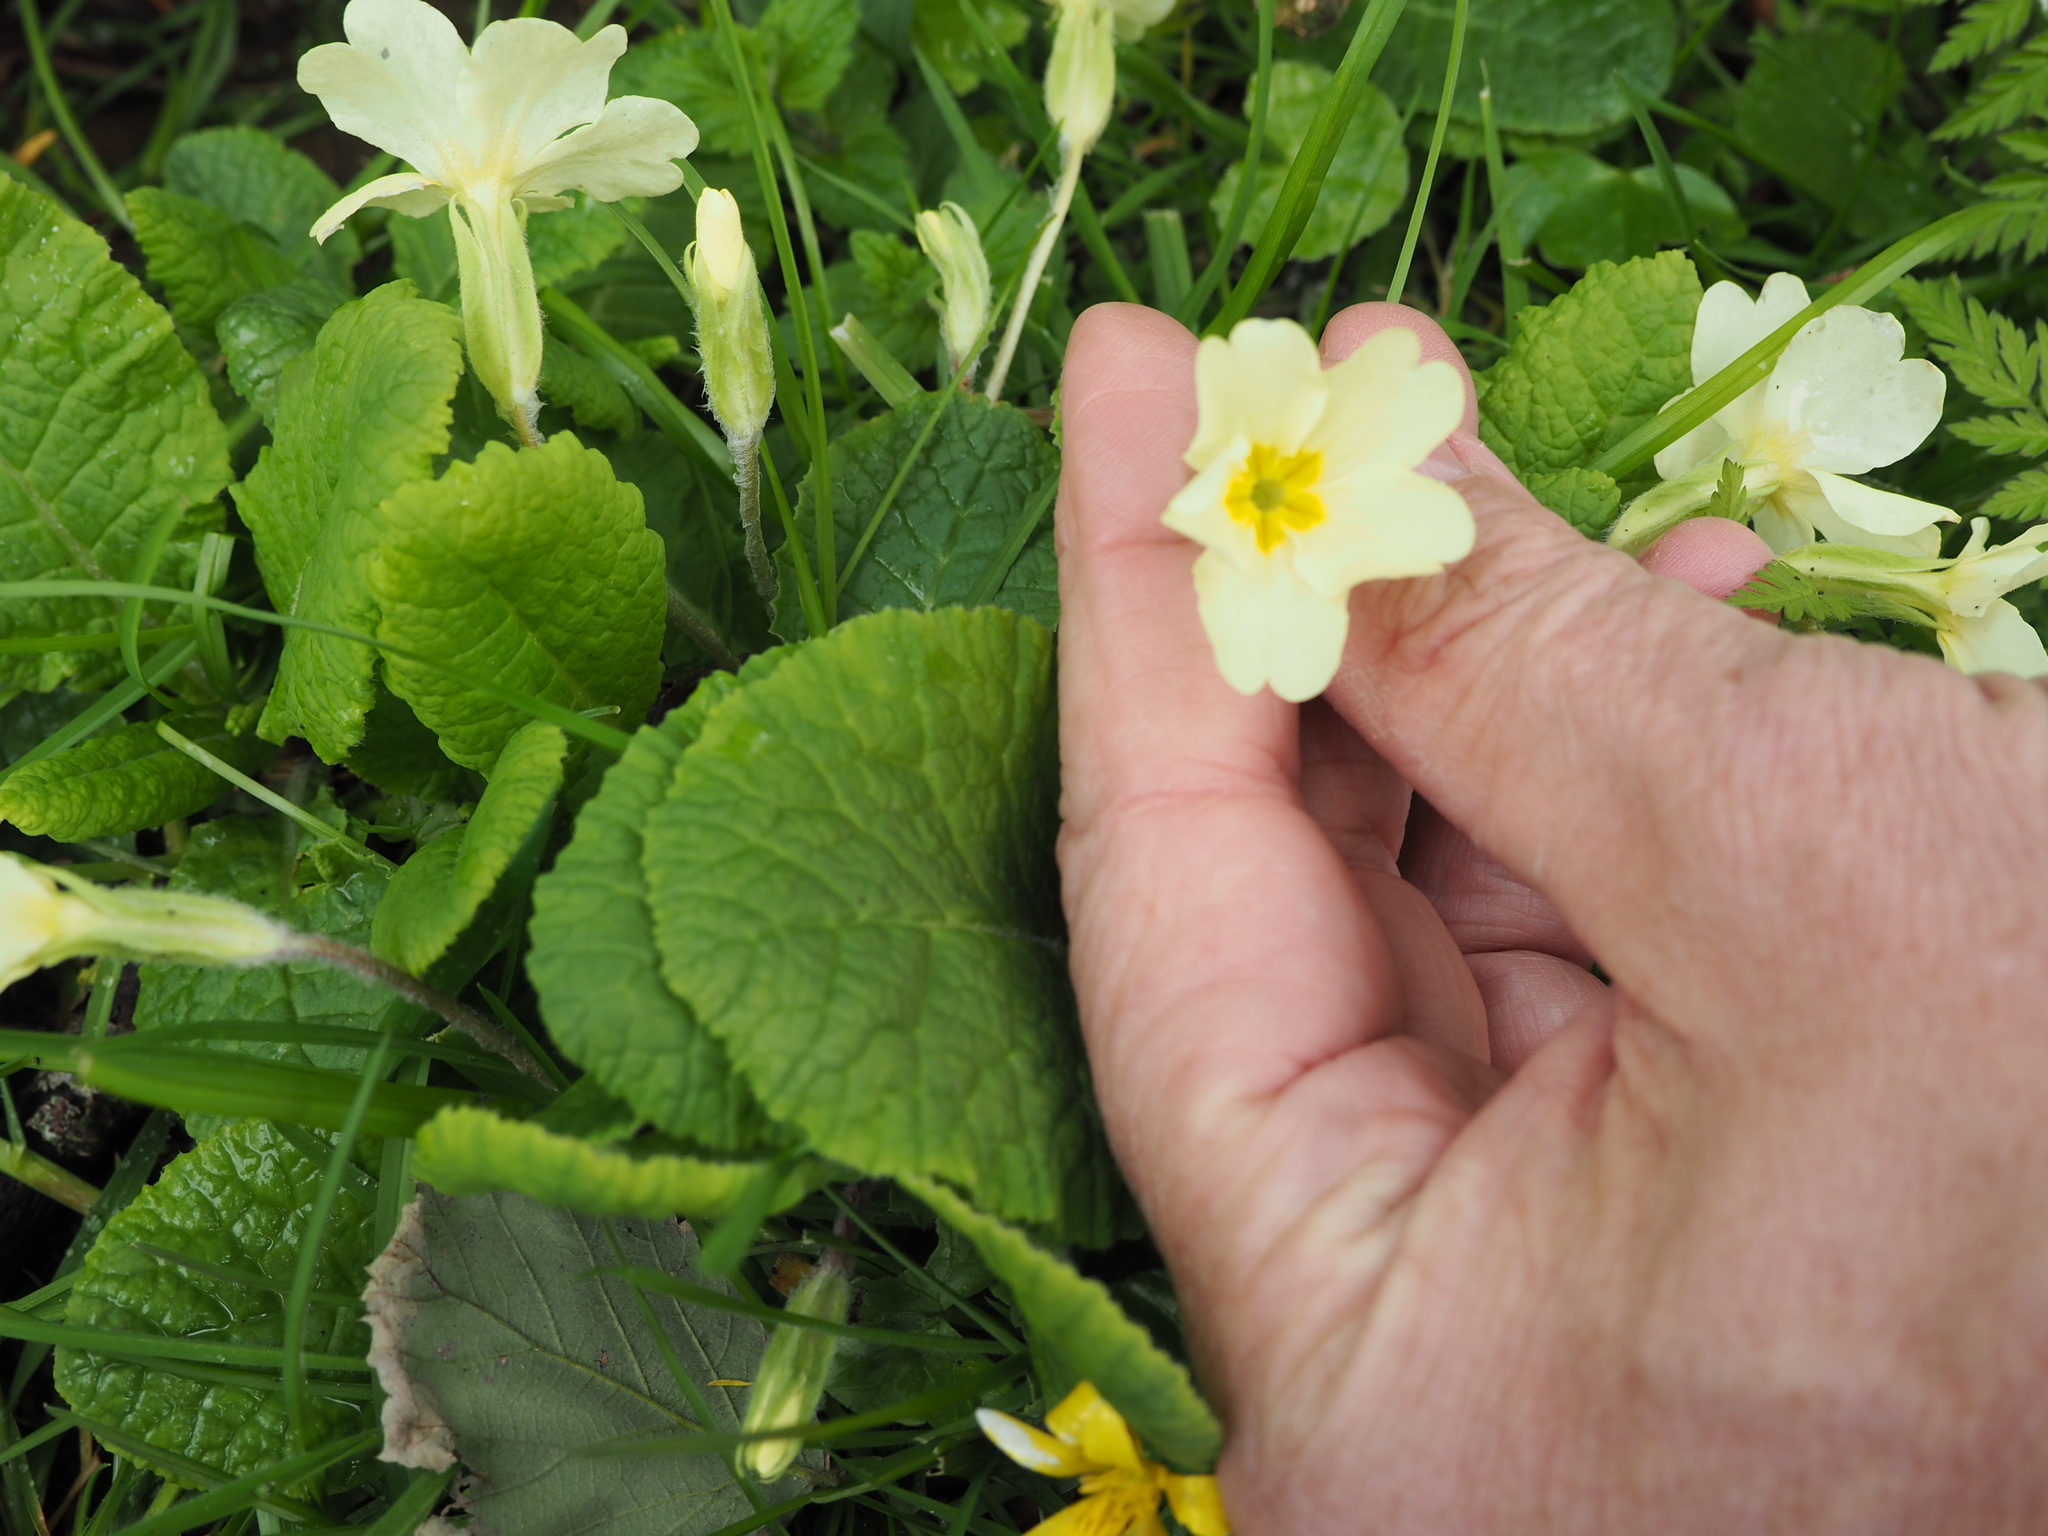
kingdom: Plantae
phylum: Tracheophyta
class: Magnoliopsida
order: Ericales
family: Primulaceae
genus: Primula
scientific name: Primula vulgaris
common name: Primrose
